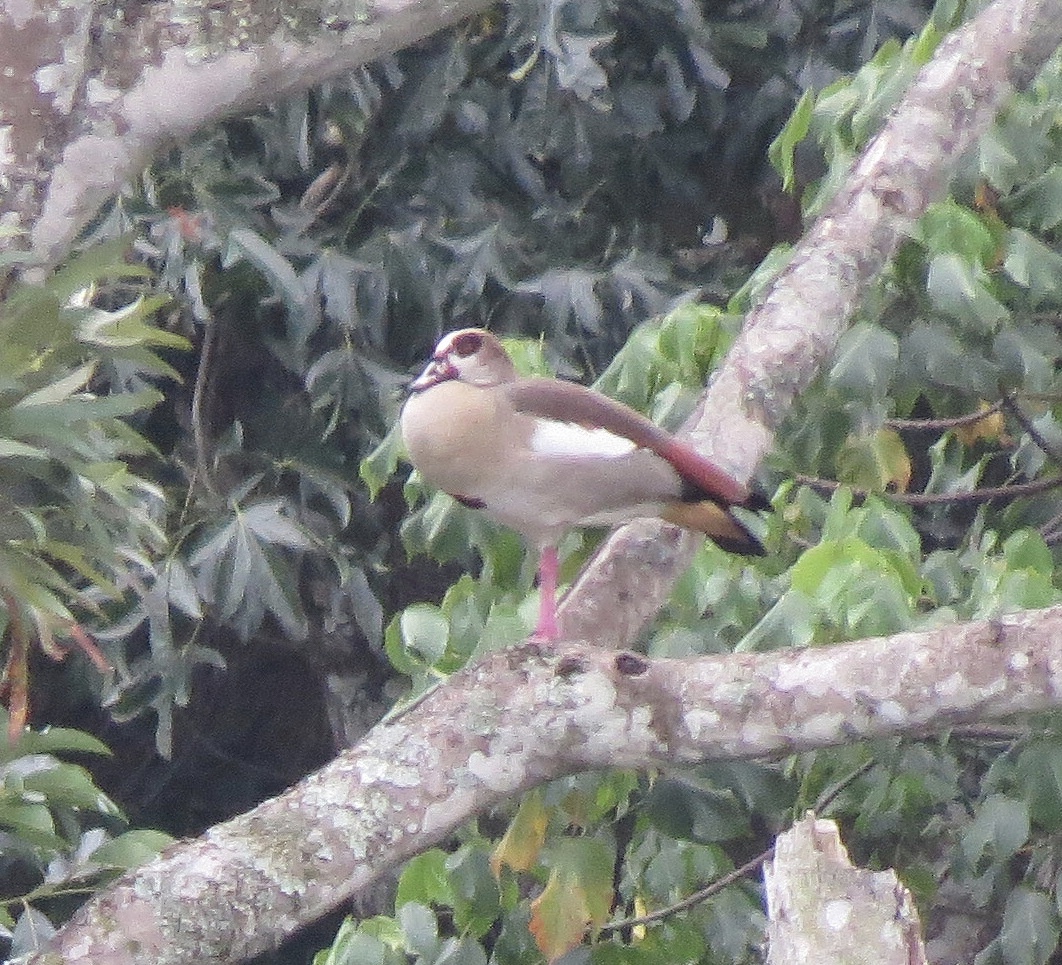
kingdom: Animalia
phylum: Chordata
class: Aves
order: Anseriformes
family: Anatidae
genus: Alopochen
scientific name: Alopochen aegyptiaca
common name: Egyptian goose
